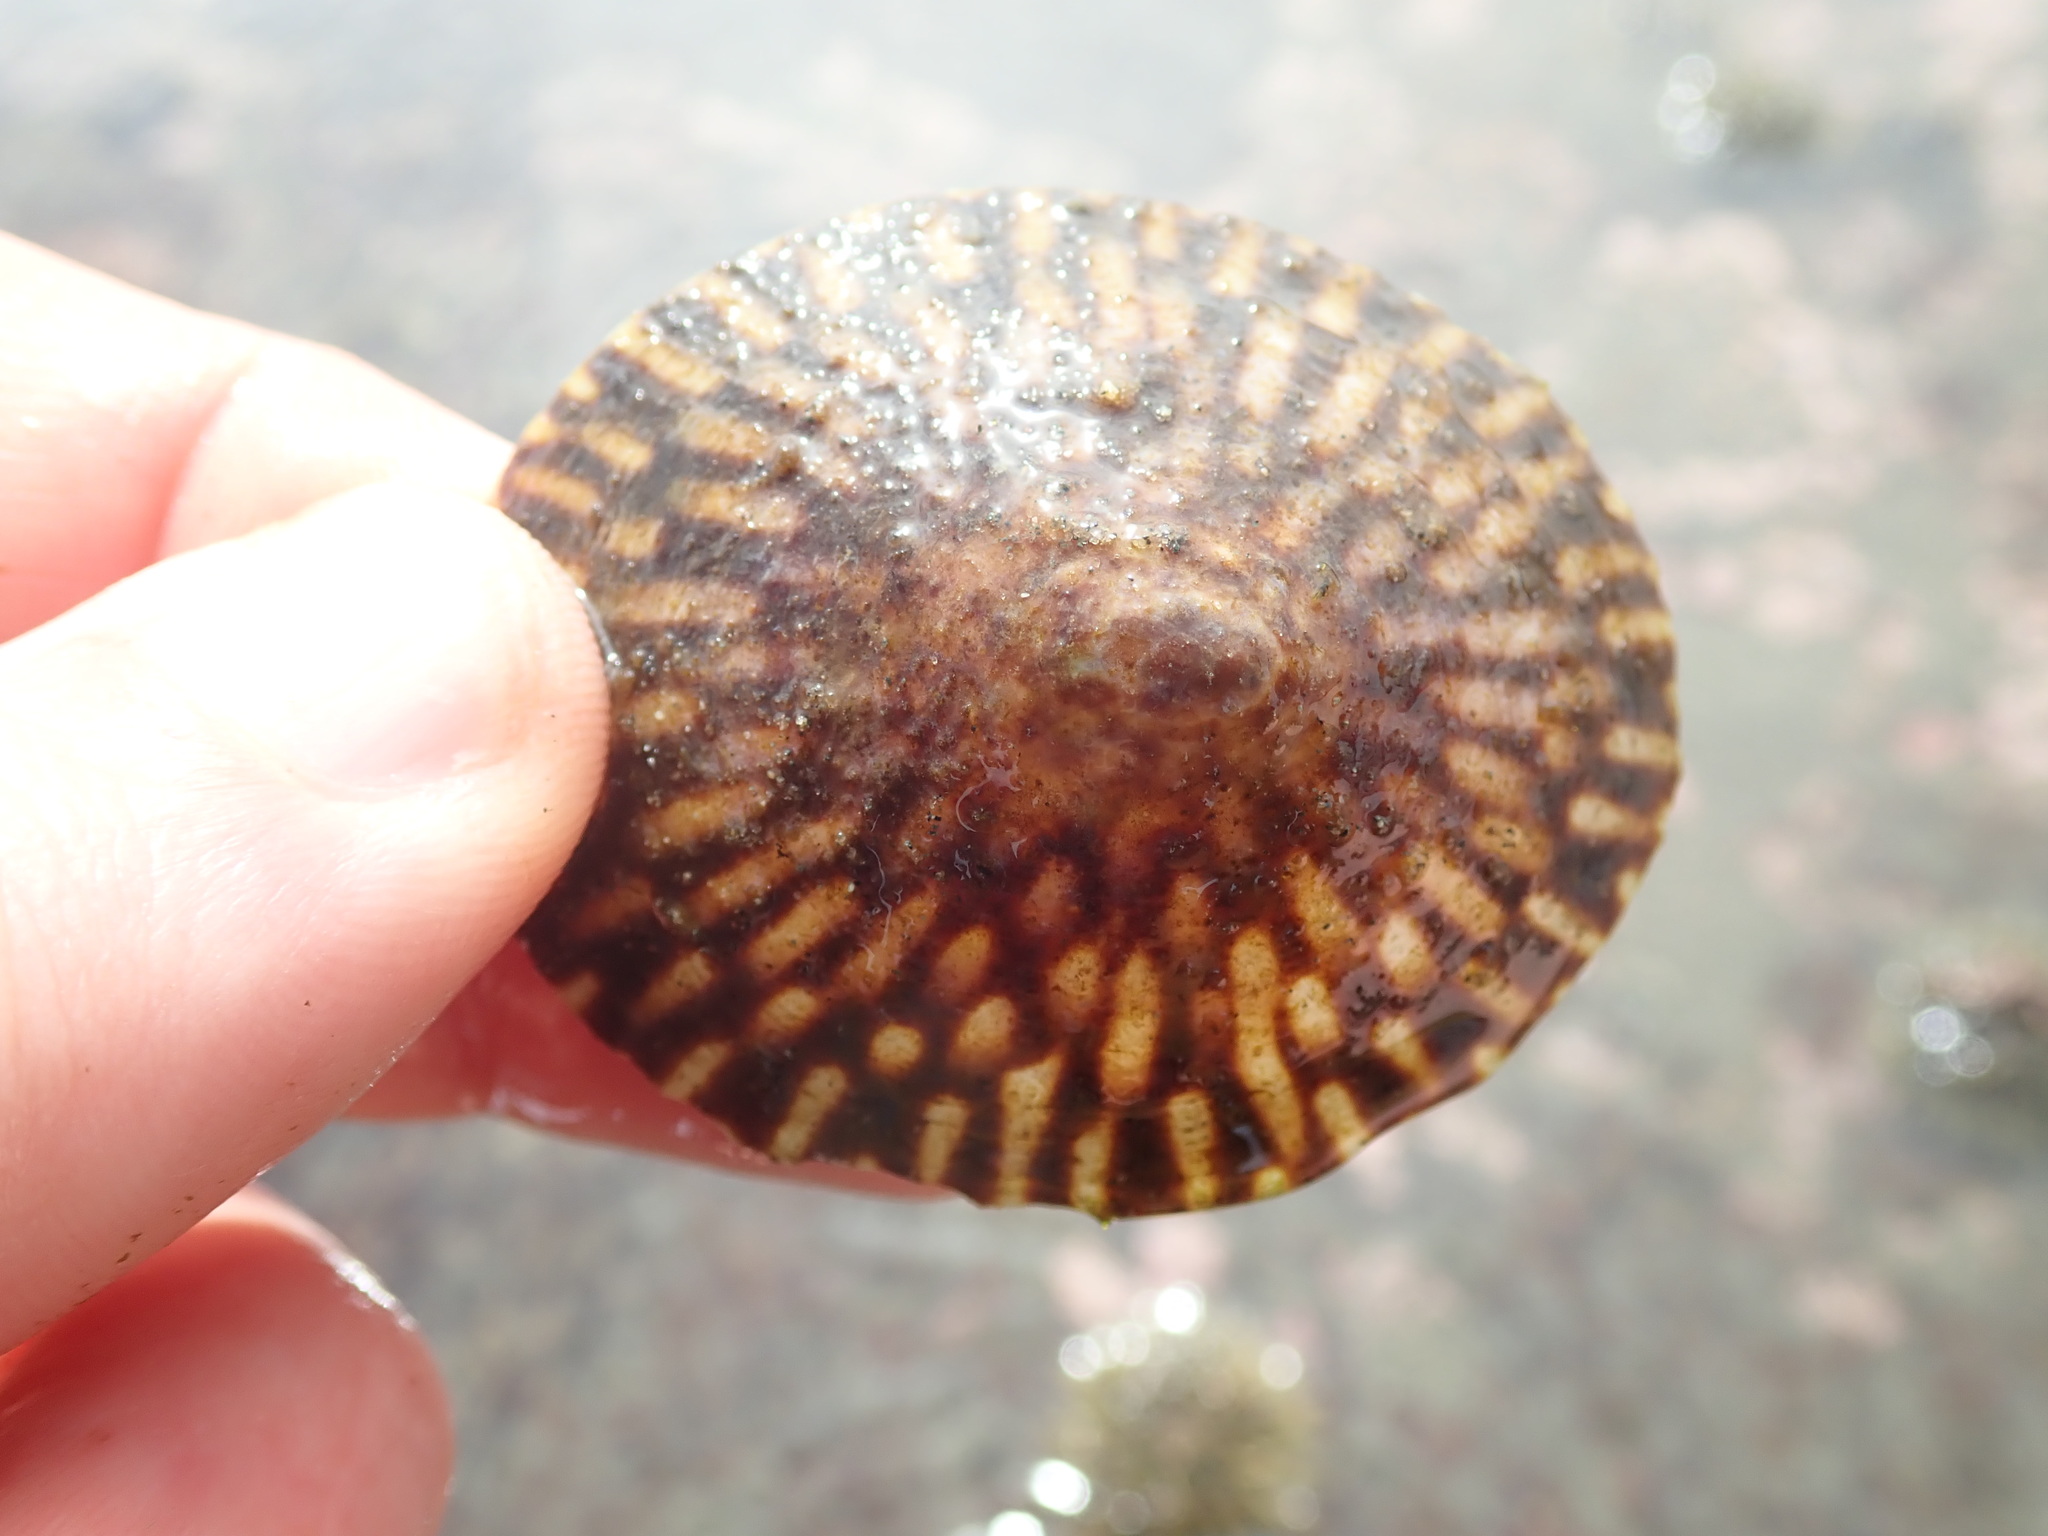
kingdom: Animalia
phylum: Mollusca
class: Gastropoda
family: Lottiidae
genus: Lottia
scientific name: Lottia scutum
